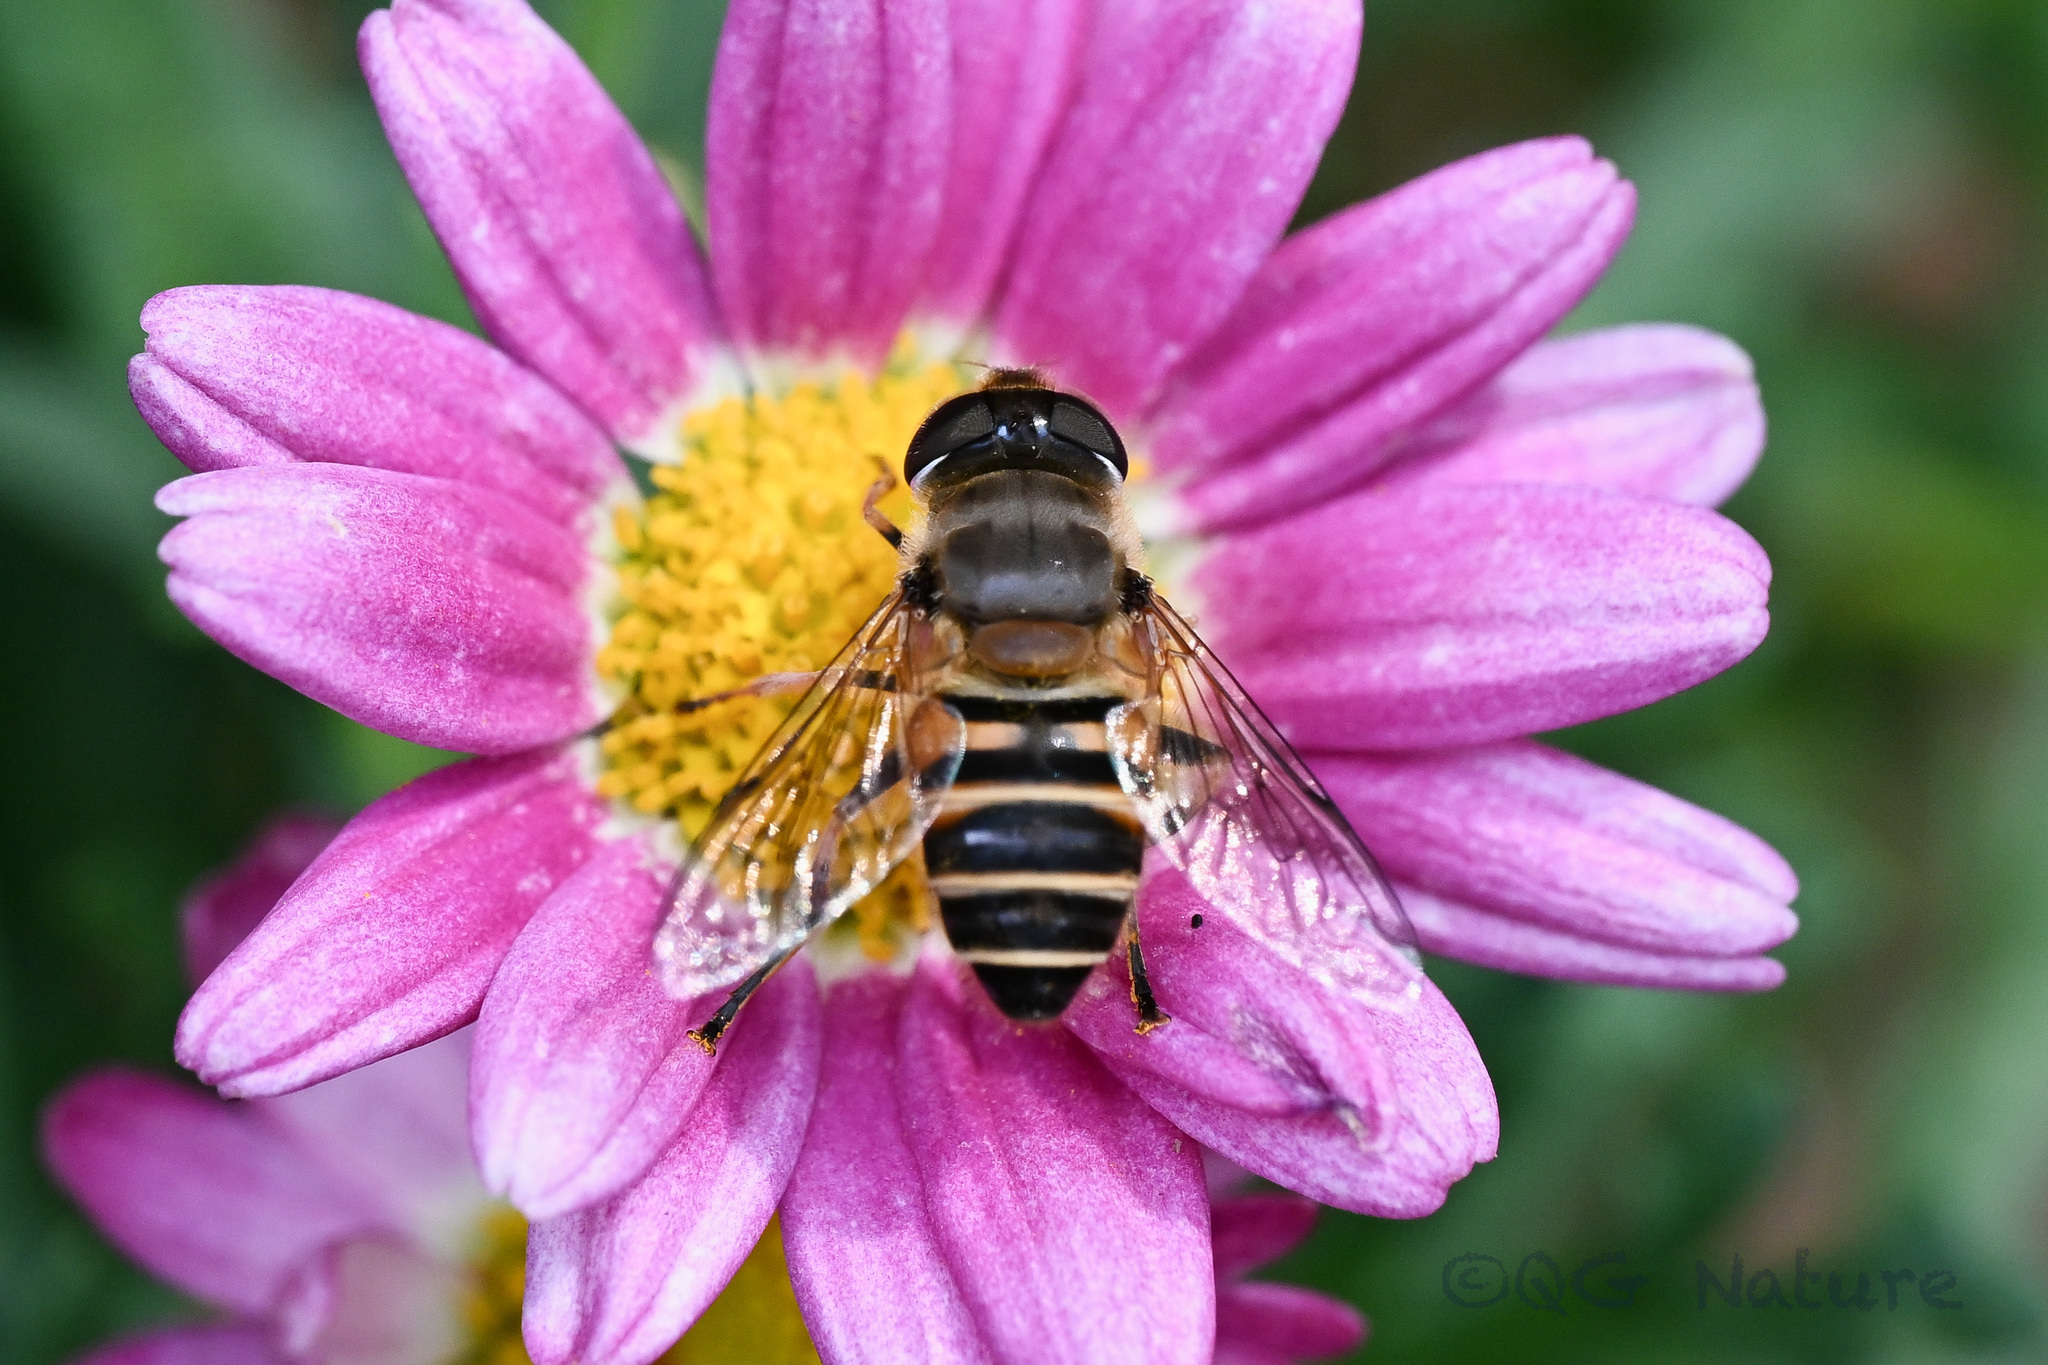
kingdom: Animalia
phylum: Arthropoda
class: Insecta
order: Diptera
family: Syrphidae
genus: Eristalis
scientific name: Eristalis cerealis
